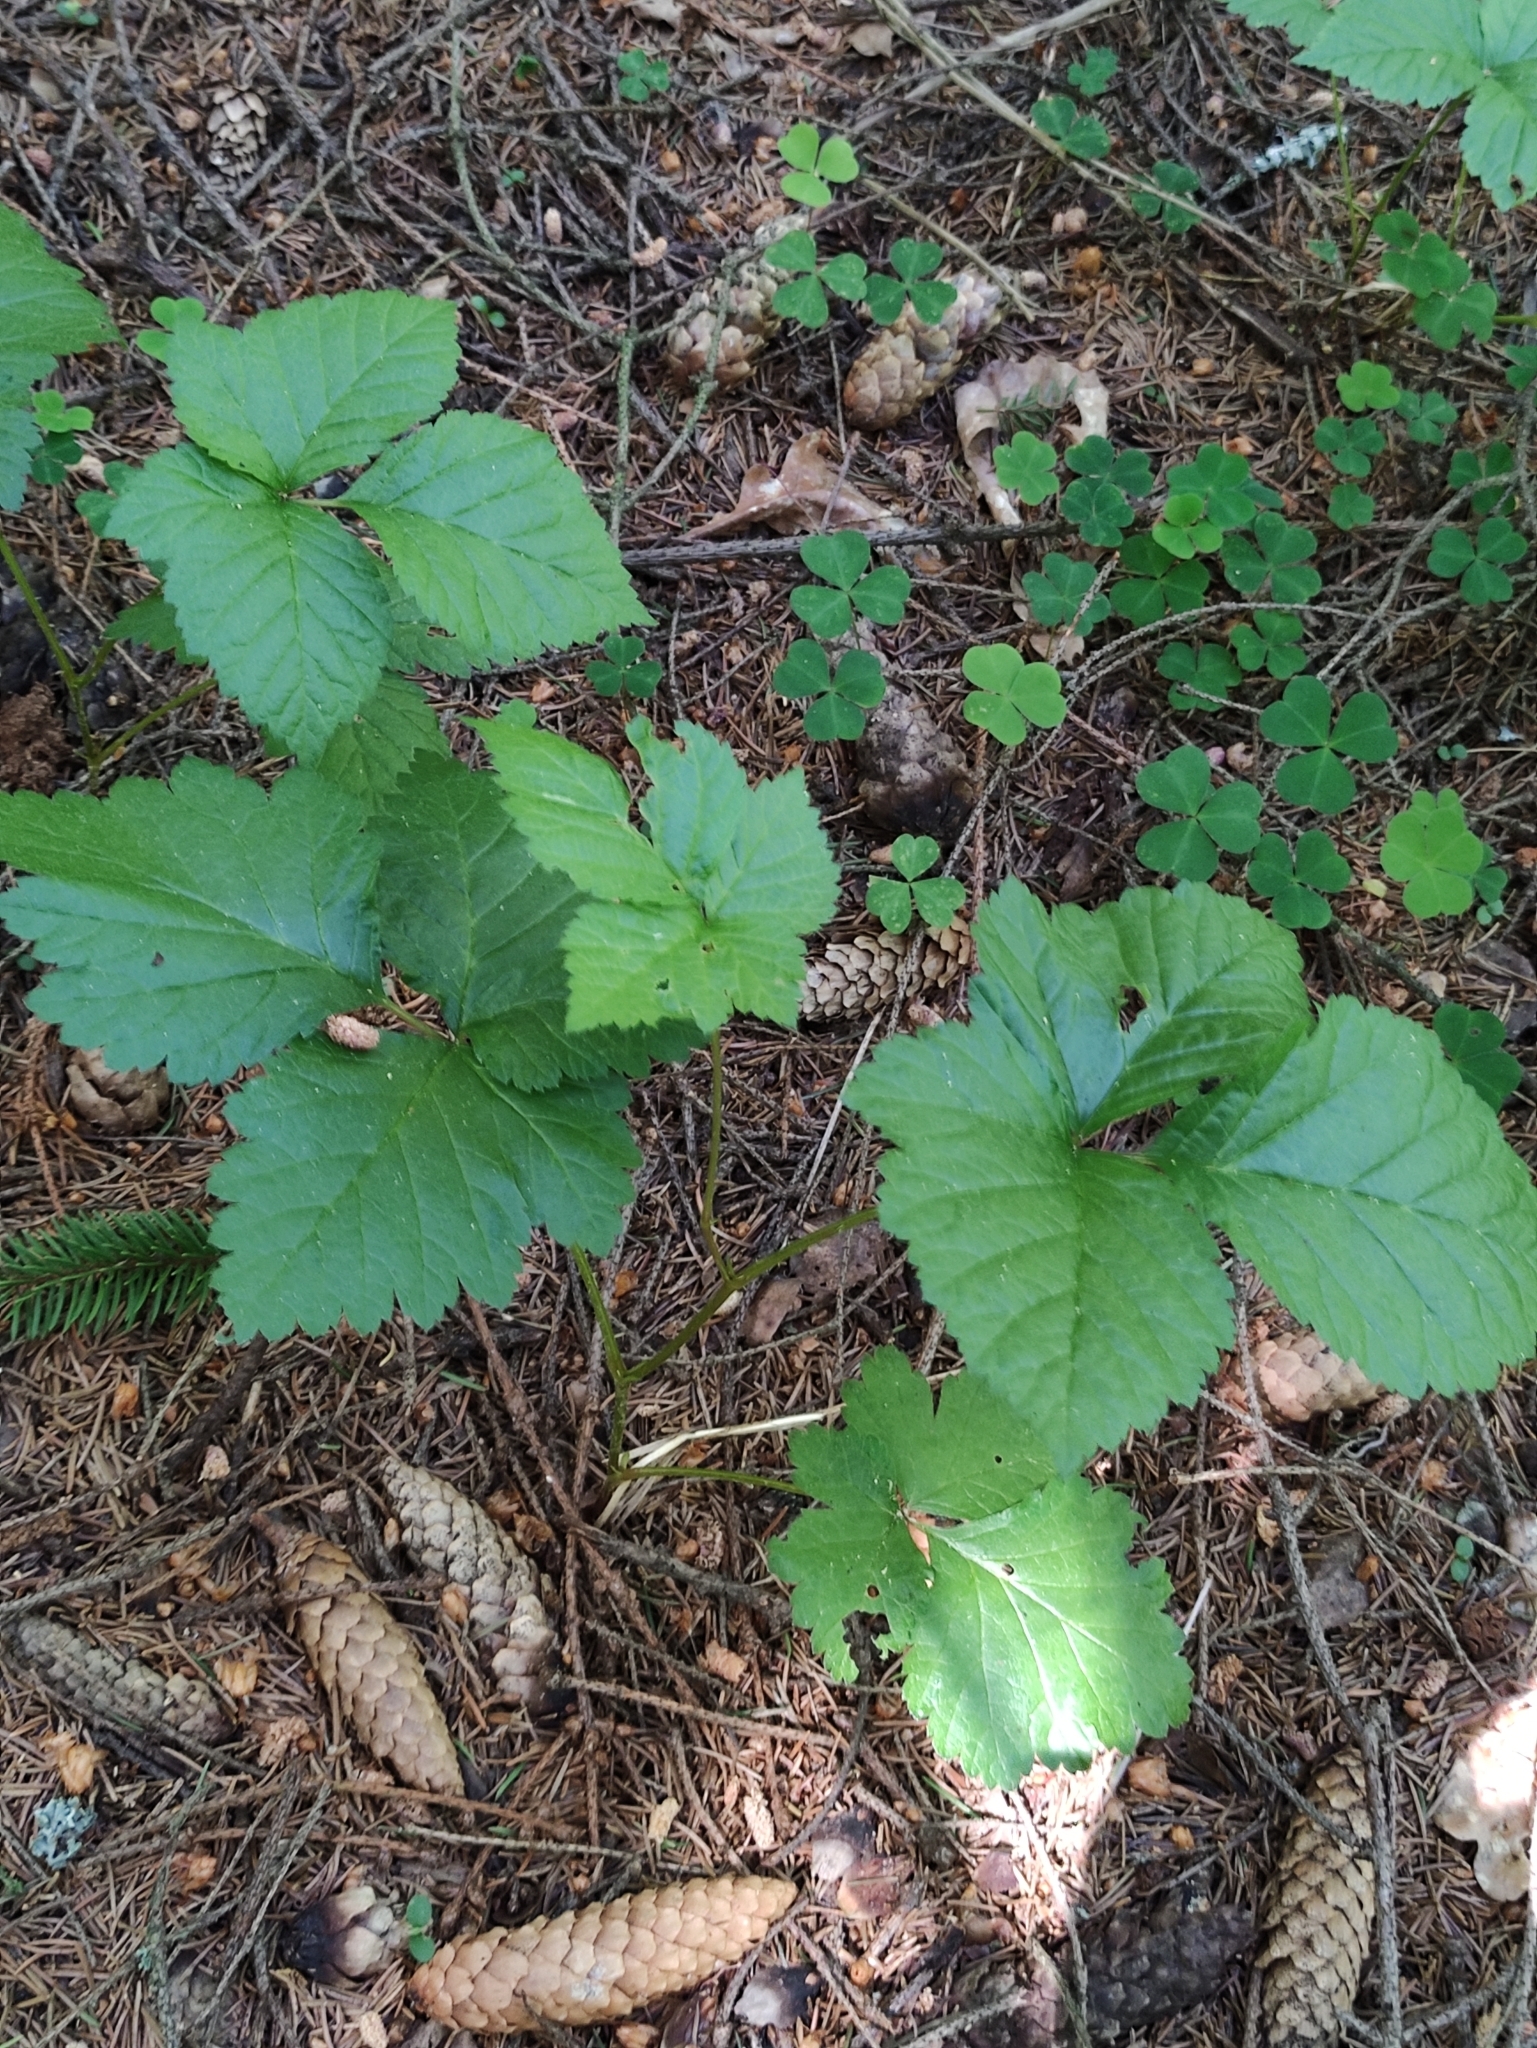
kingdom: Plantae
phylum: Tracheophyta
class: Magnoliopsida
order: Rosales
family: Rosaceae
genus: Rubus
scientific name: Rubus saxatilis
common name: Stone bramble
